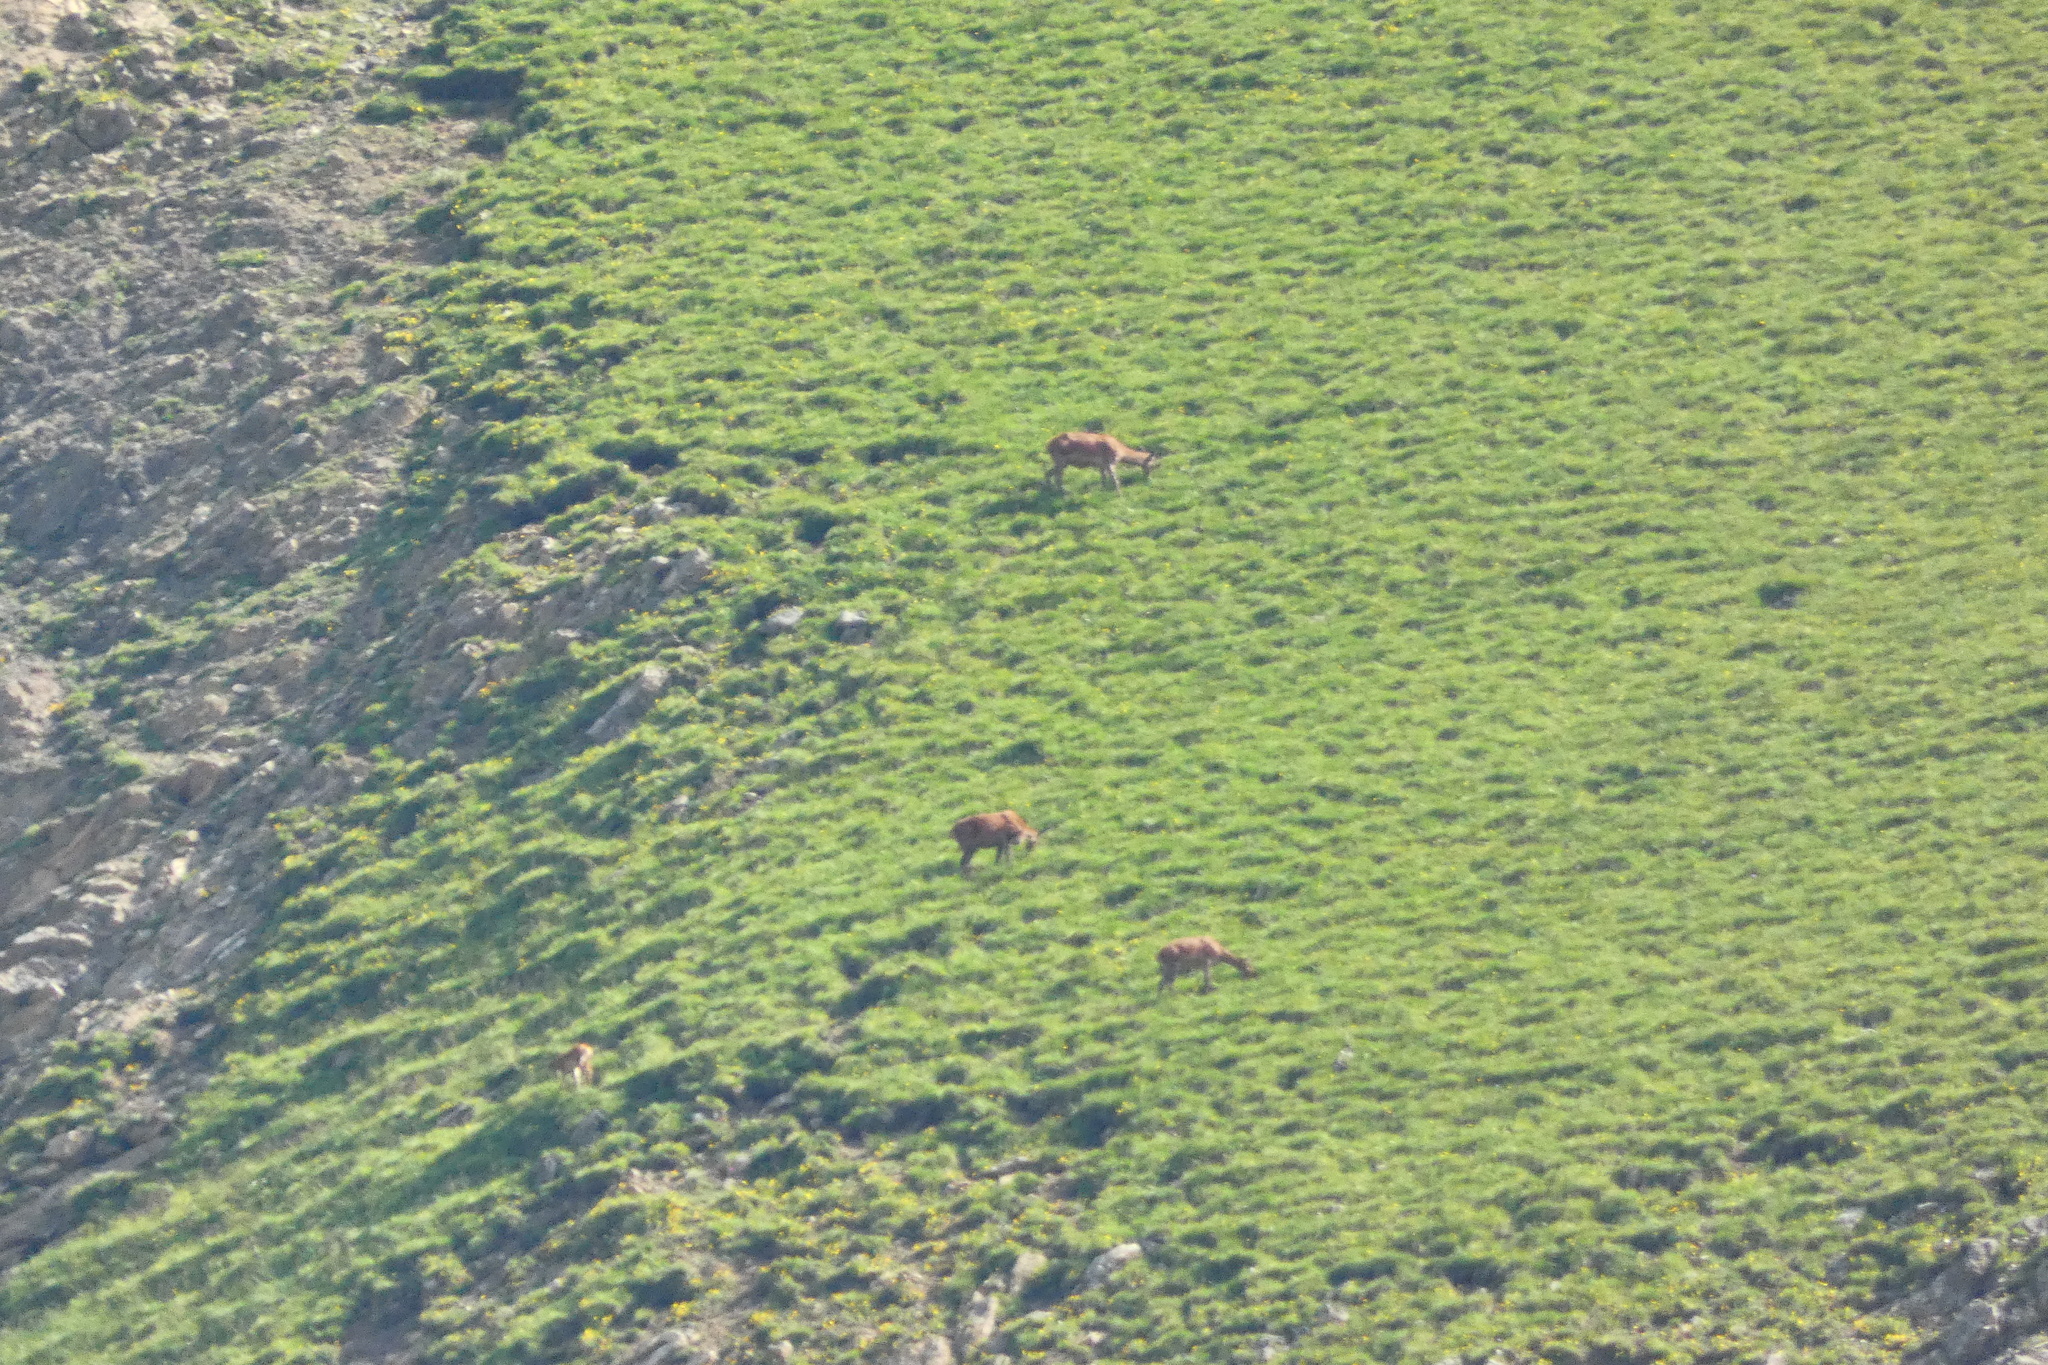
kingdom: Animalia
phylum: Chordata
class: Mammalia
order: Artiodactyla
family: Cervidae
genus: Cervus
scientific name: Cervus elaphus
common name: Red deer
